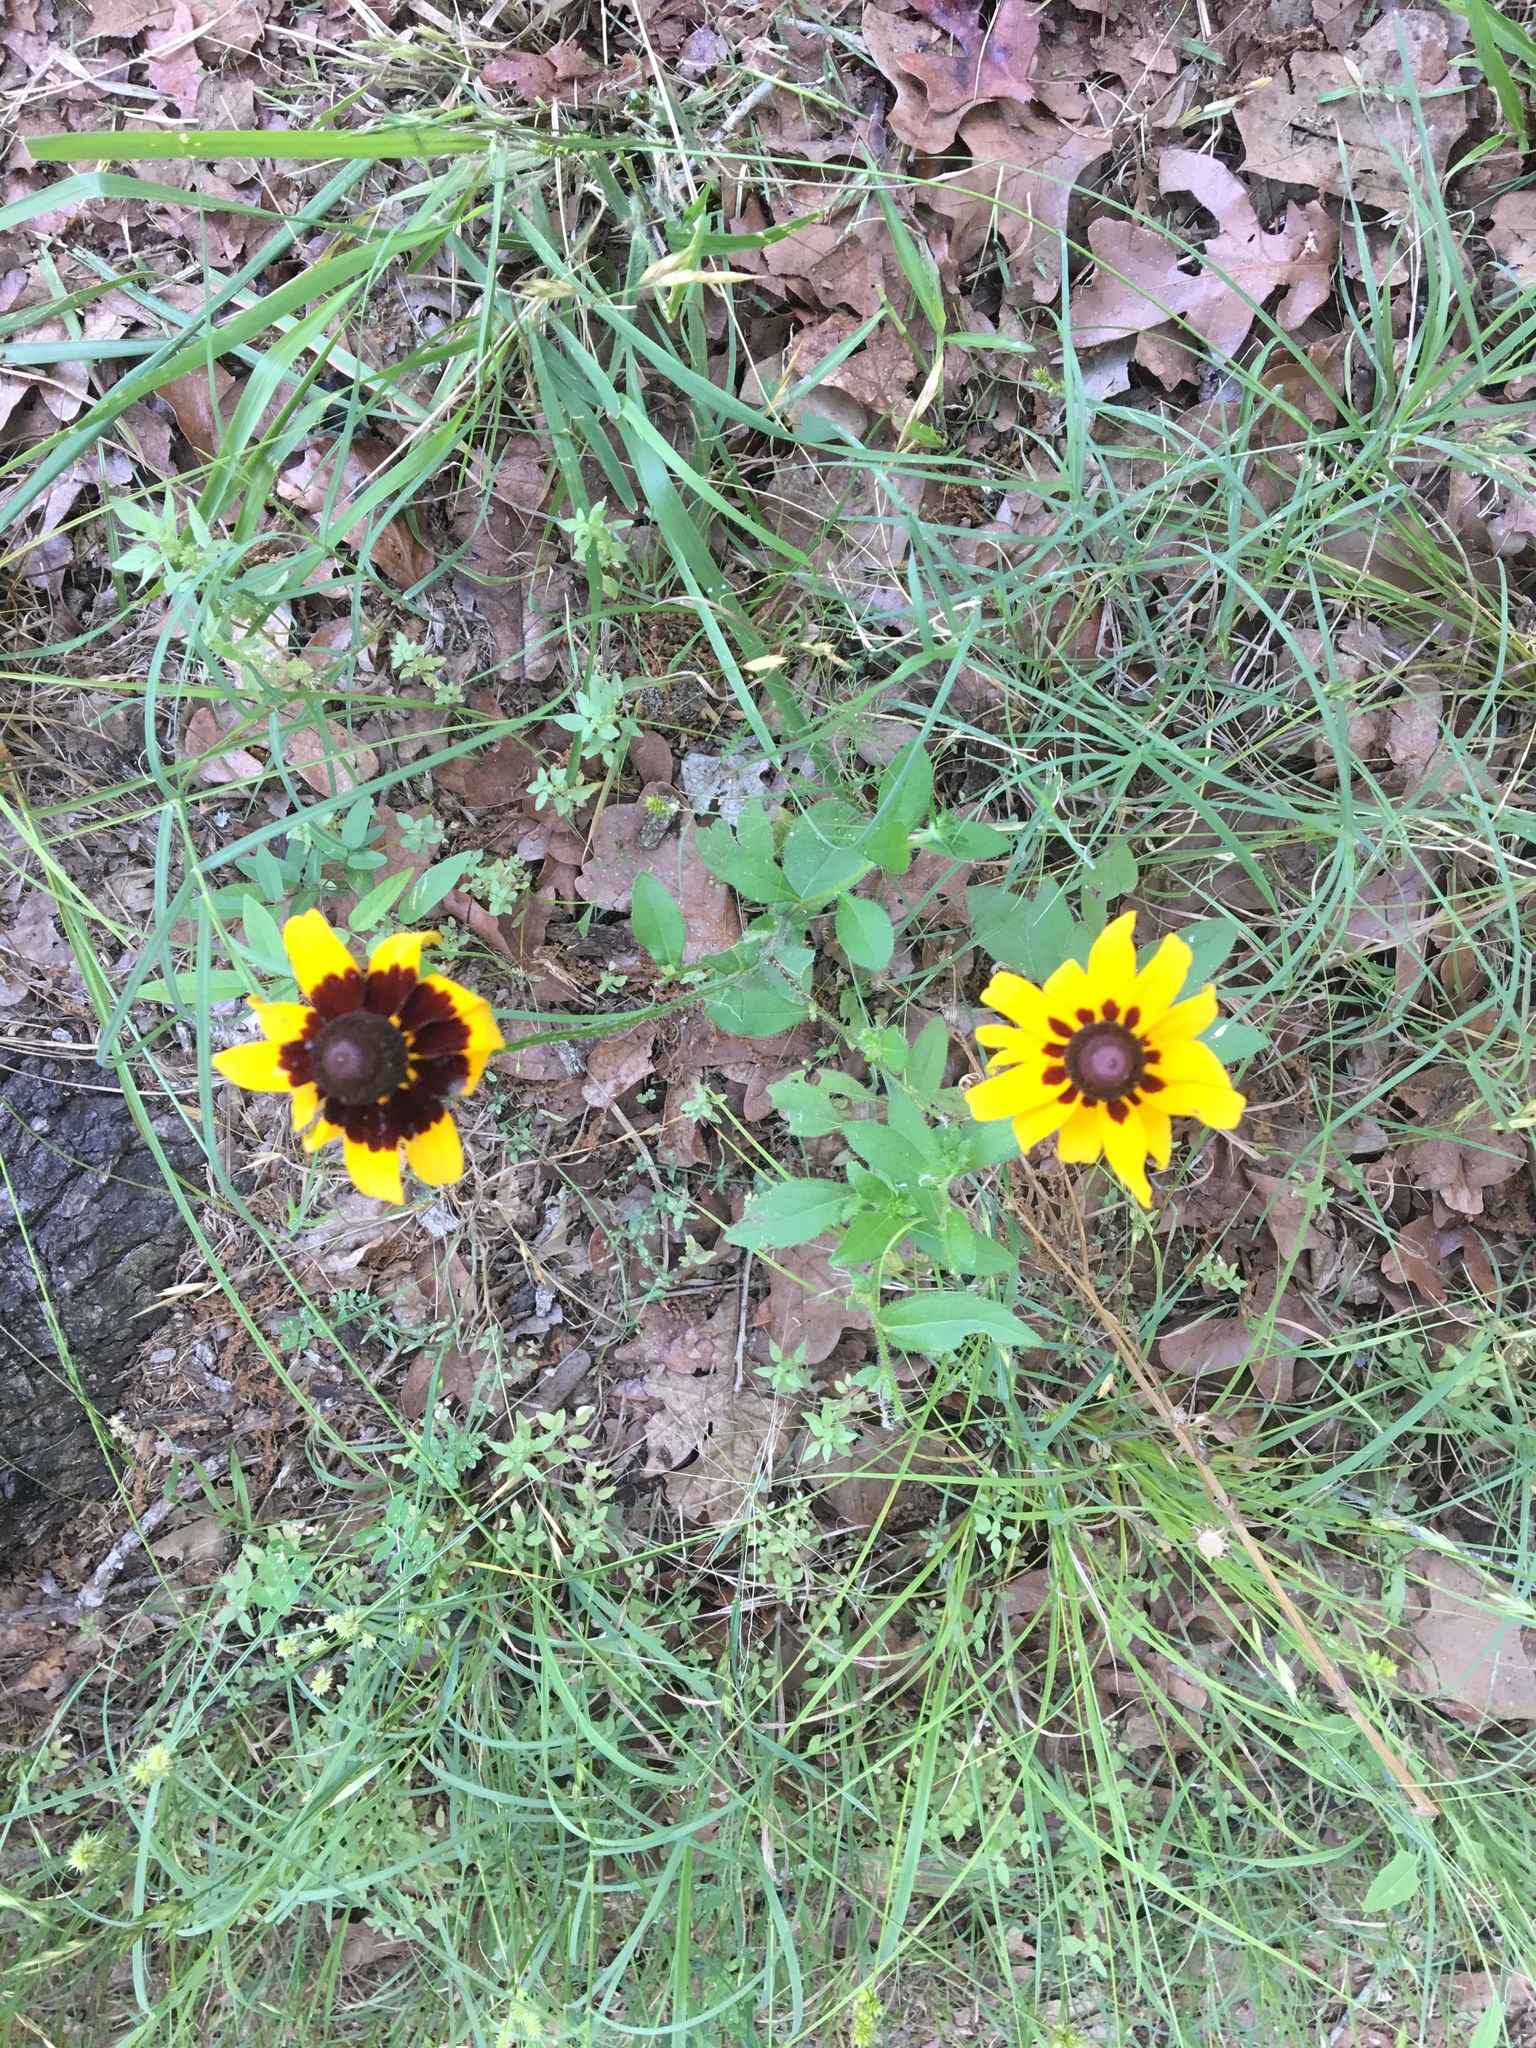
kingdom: Plantae
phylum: Tracheophyta
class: Magnoliopsida
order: Asterales
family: Asteraceae
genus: Rudbeckia
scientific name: Rudbeckia hirta
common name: Black-eyed-susan
